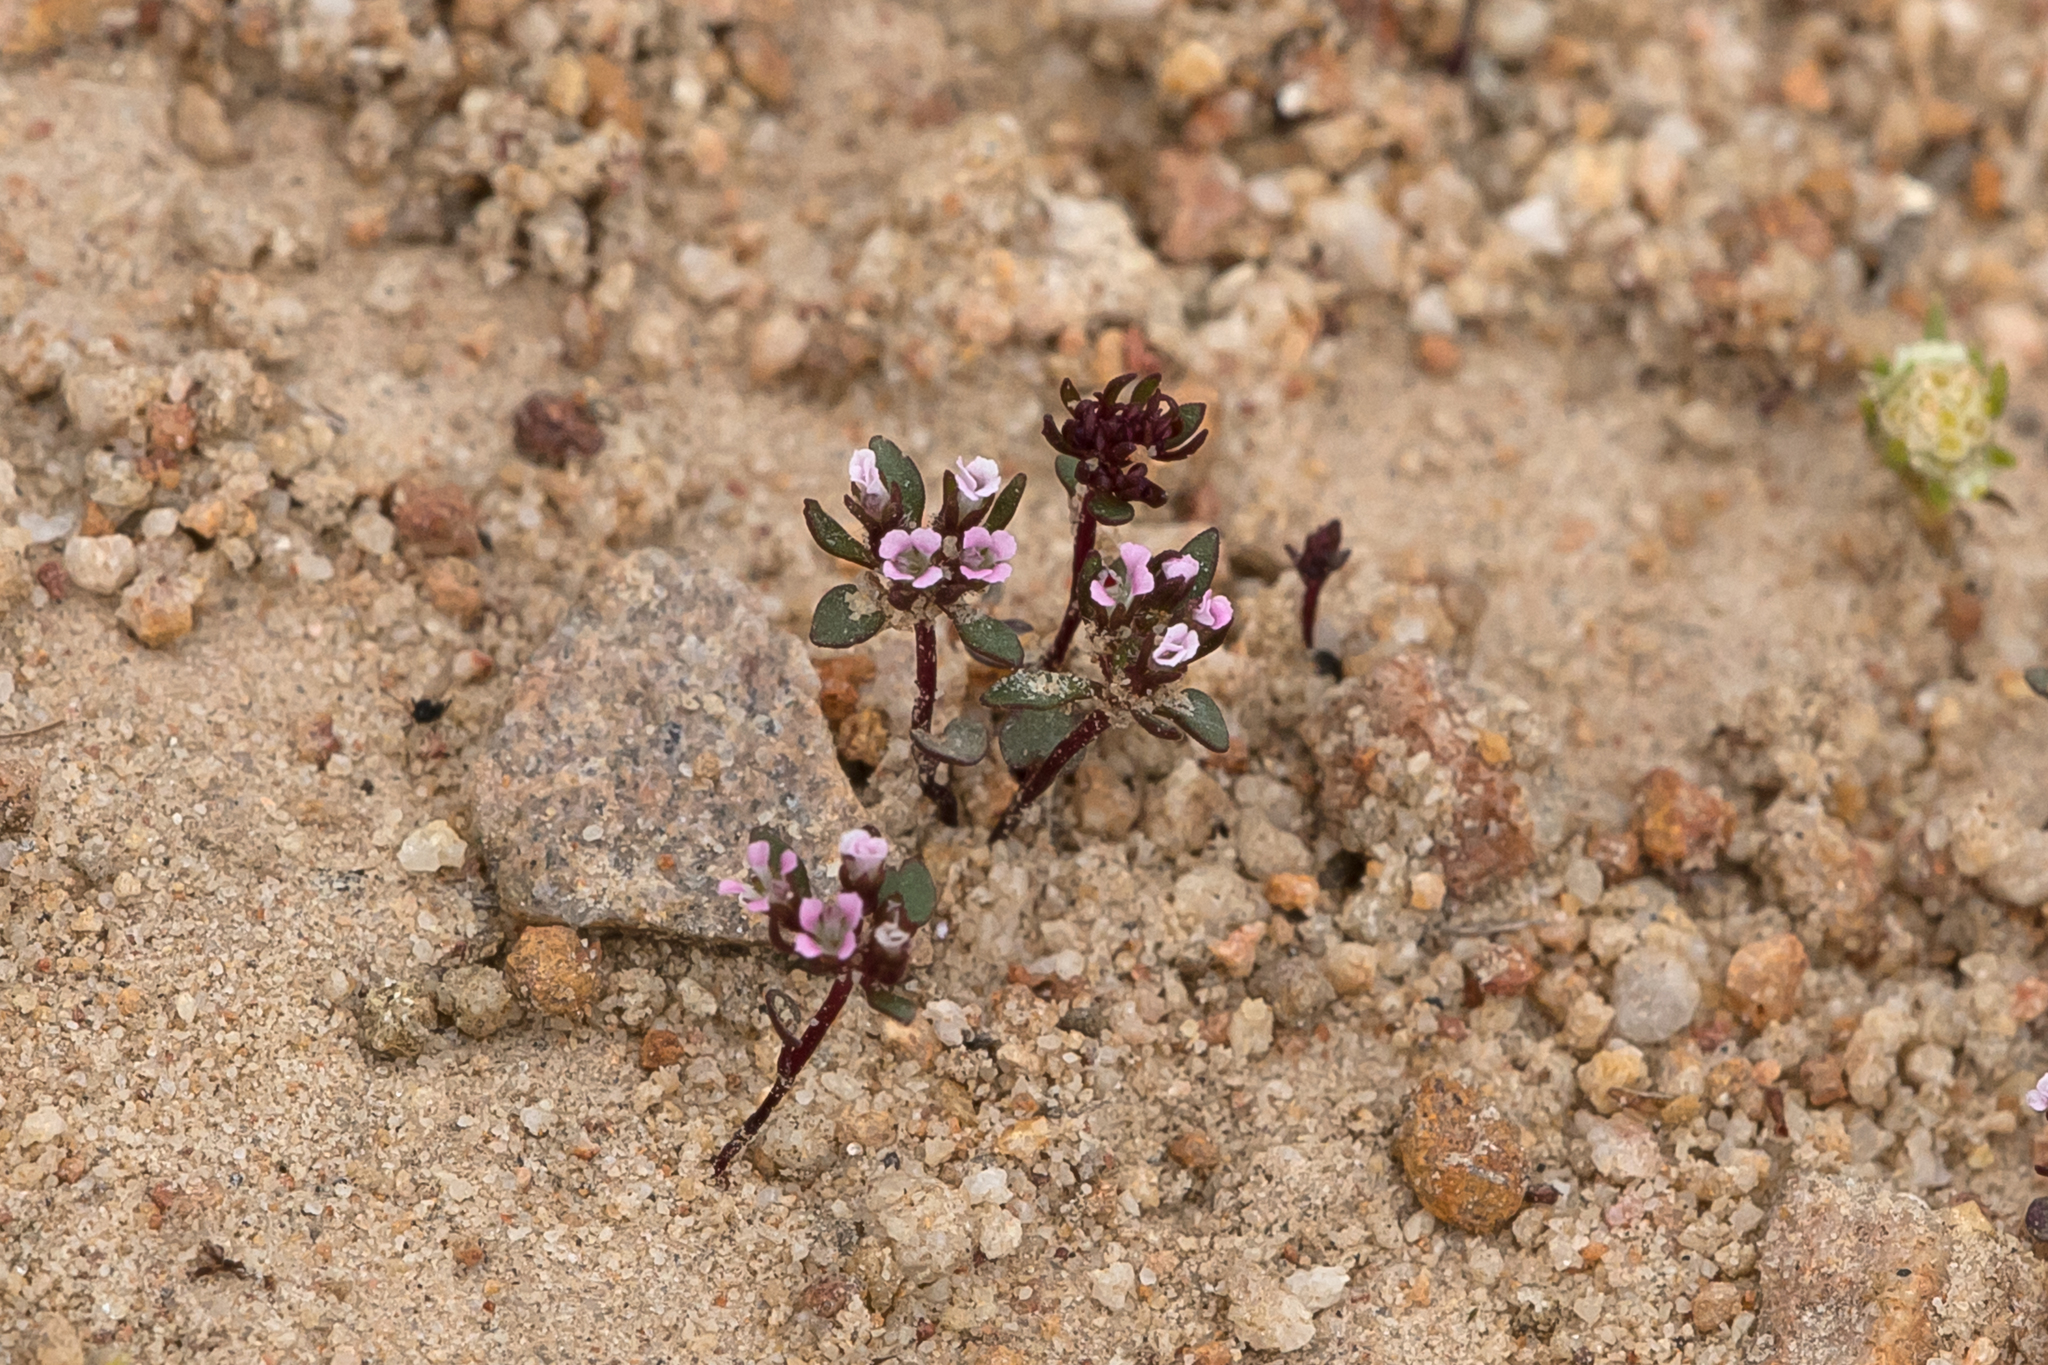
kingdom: Plantae
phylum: Tracheophyta
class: Magnoliopsida
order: Asterales
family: Stylidiaceae
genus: Levenhookia
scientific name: Levenhookia pusilla
